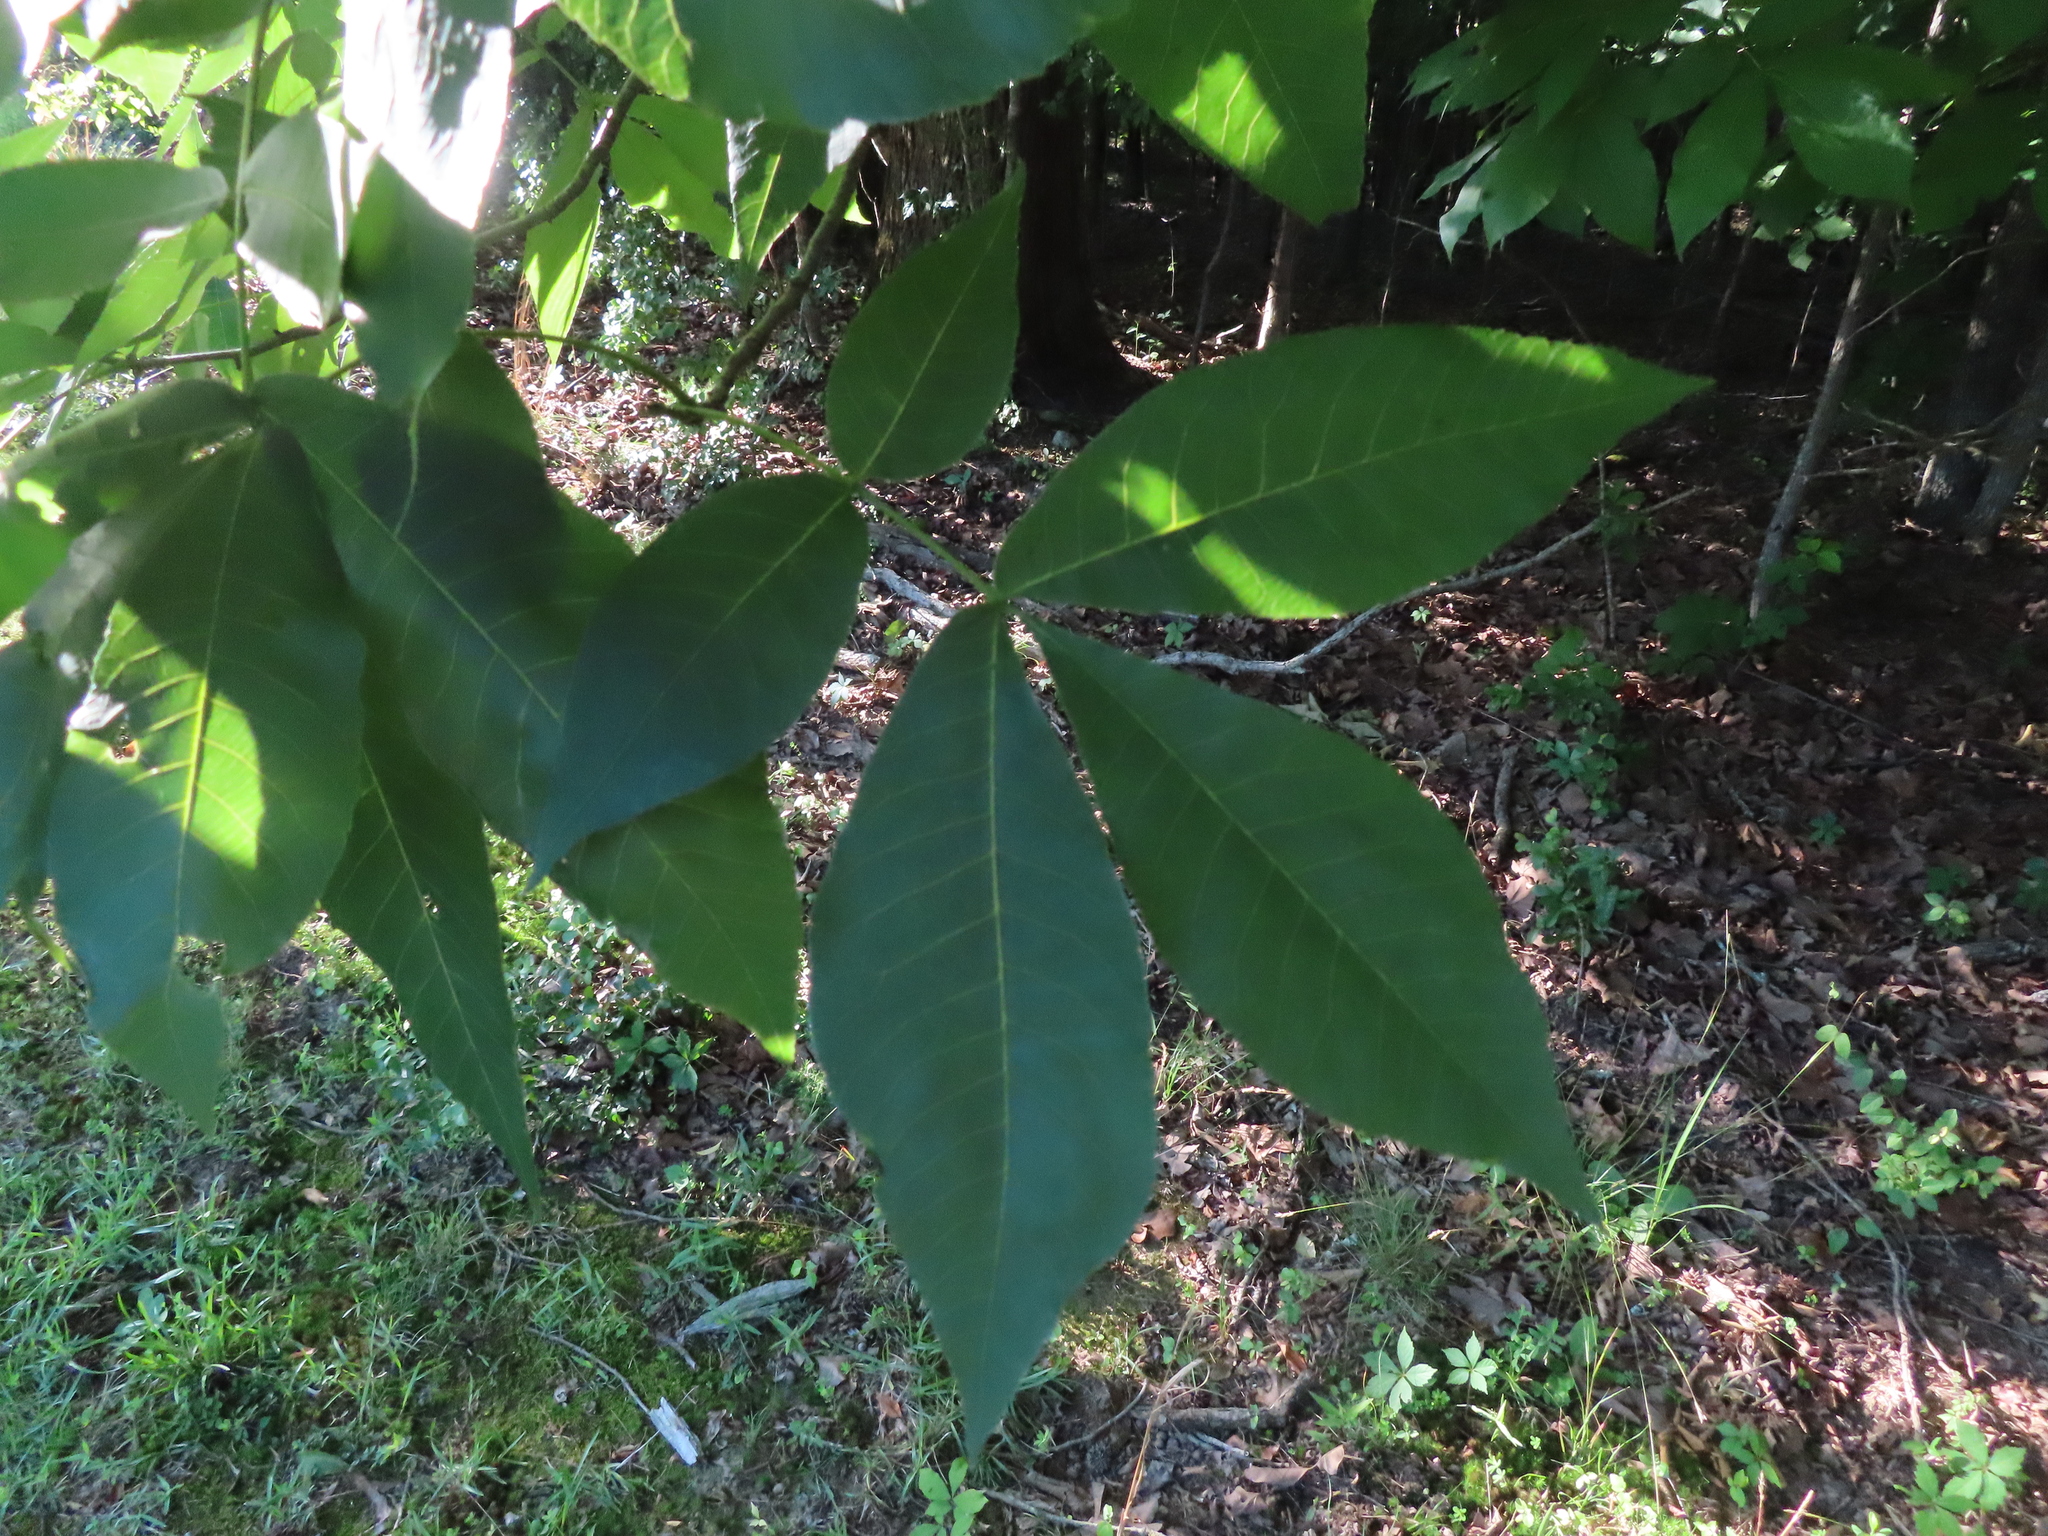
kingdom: Plantae
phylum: Tracheophyta
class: Magnoliopsida
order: Fagales
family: Juglandaceae
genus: Carya
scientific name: Carya glabra
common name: Pignut hickory
